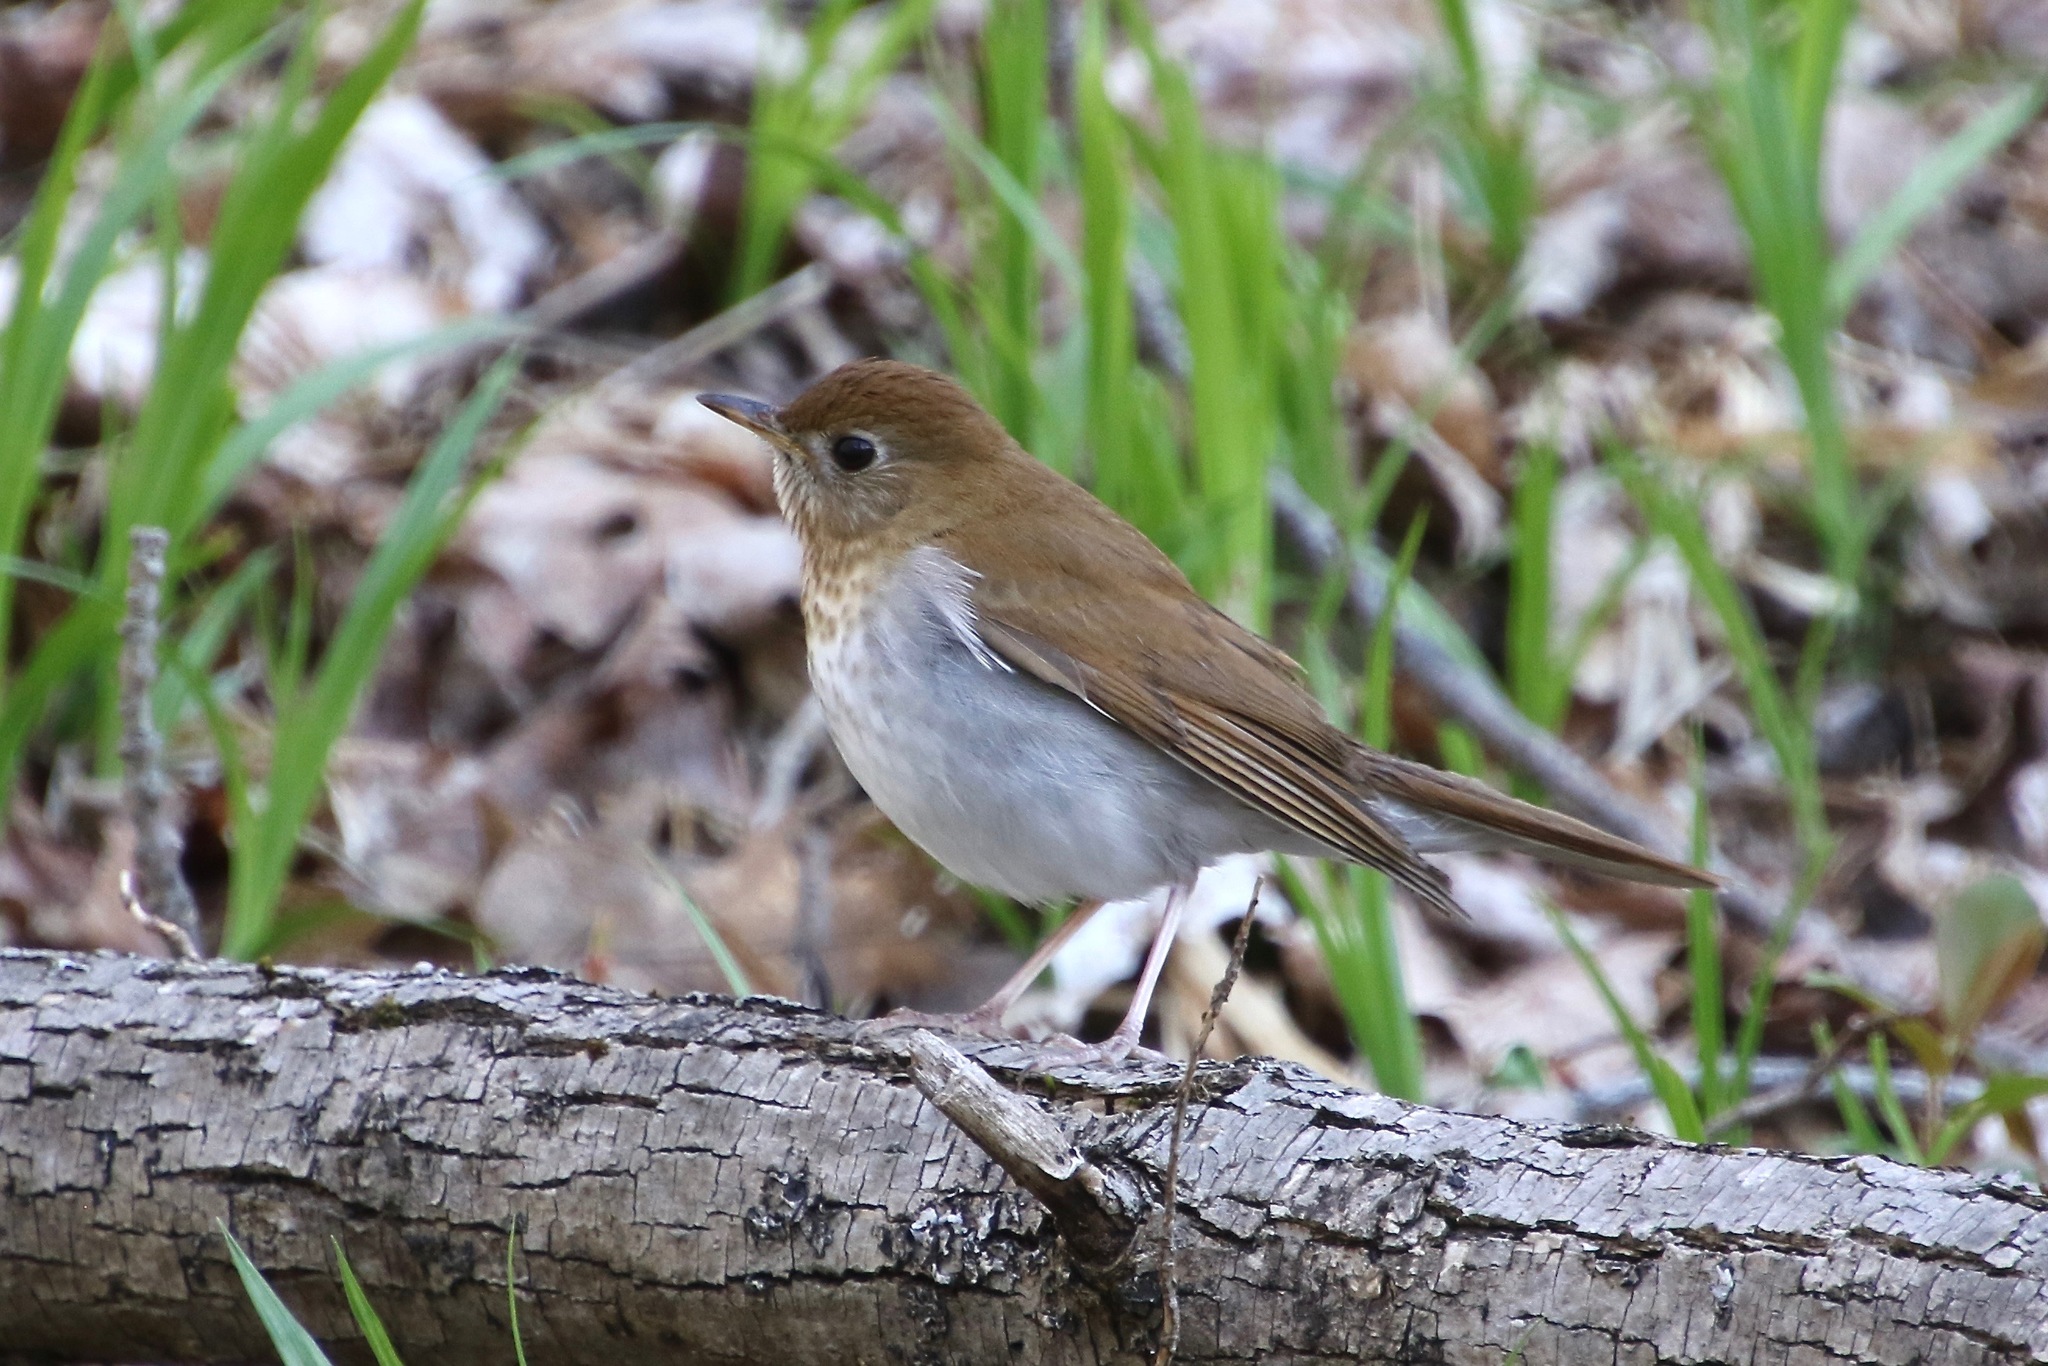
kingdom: Animalia
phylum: Chordata
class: Aves
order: Passeriformes
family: Turdidae
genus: Catharus
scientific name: Catharus fuscescens
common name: Veery
